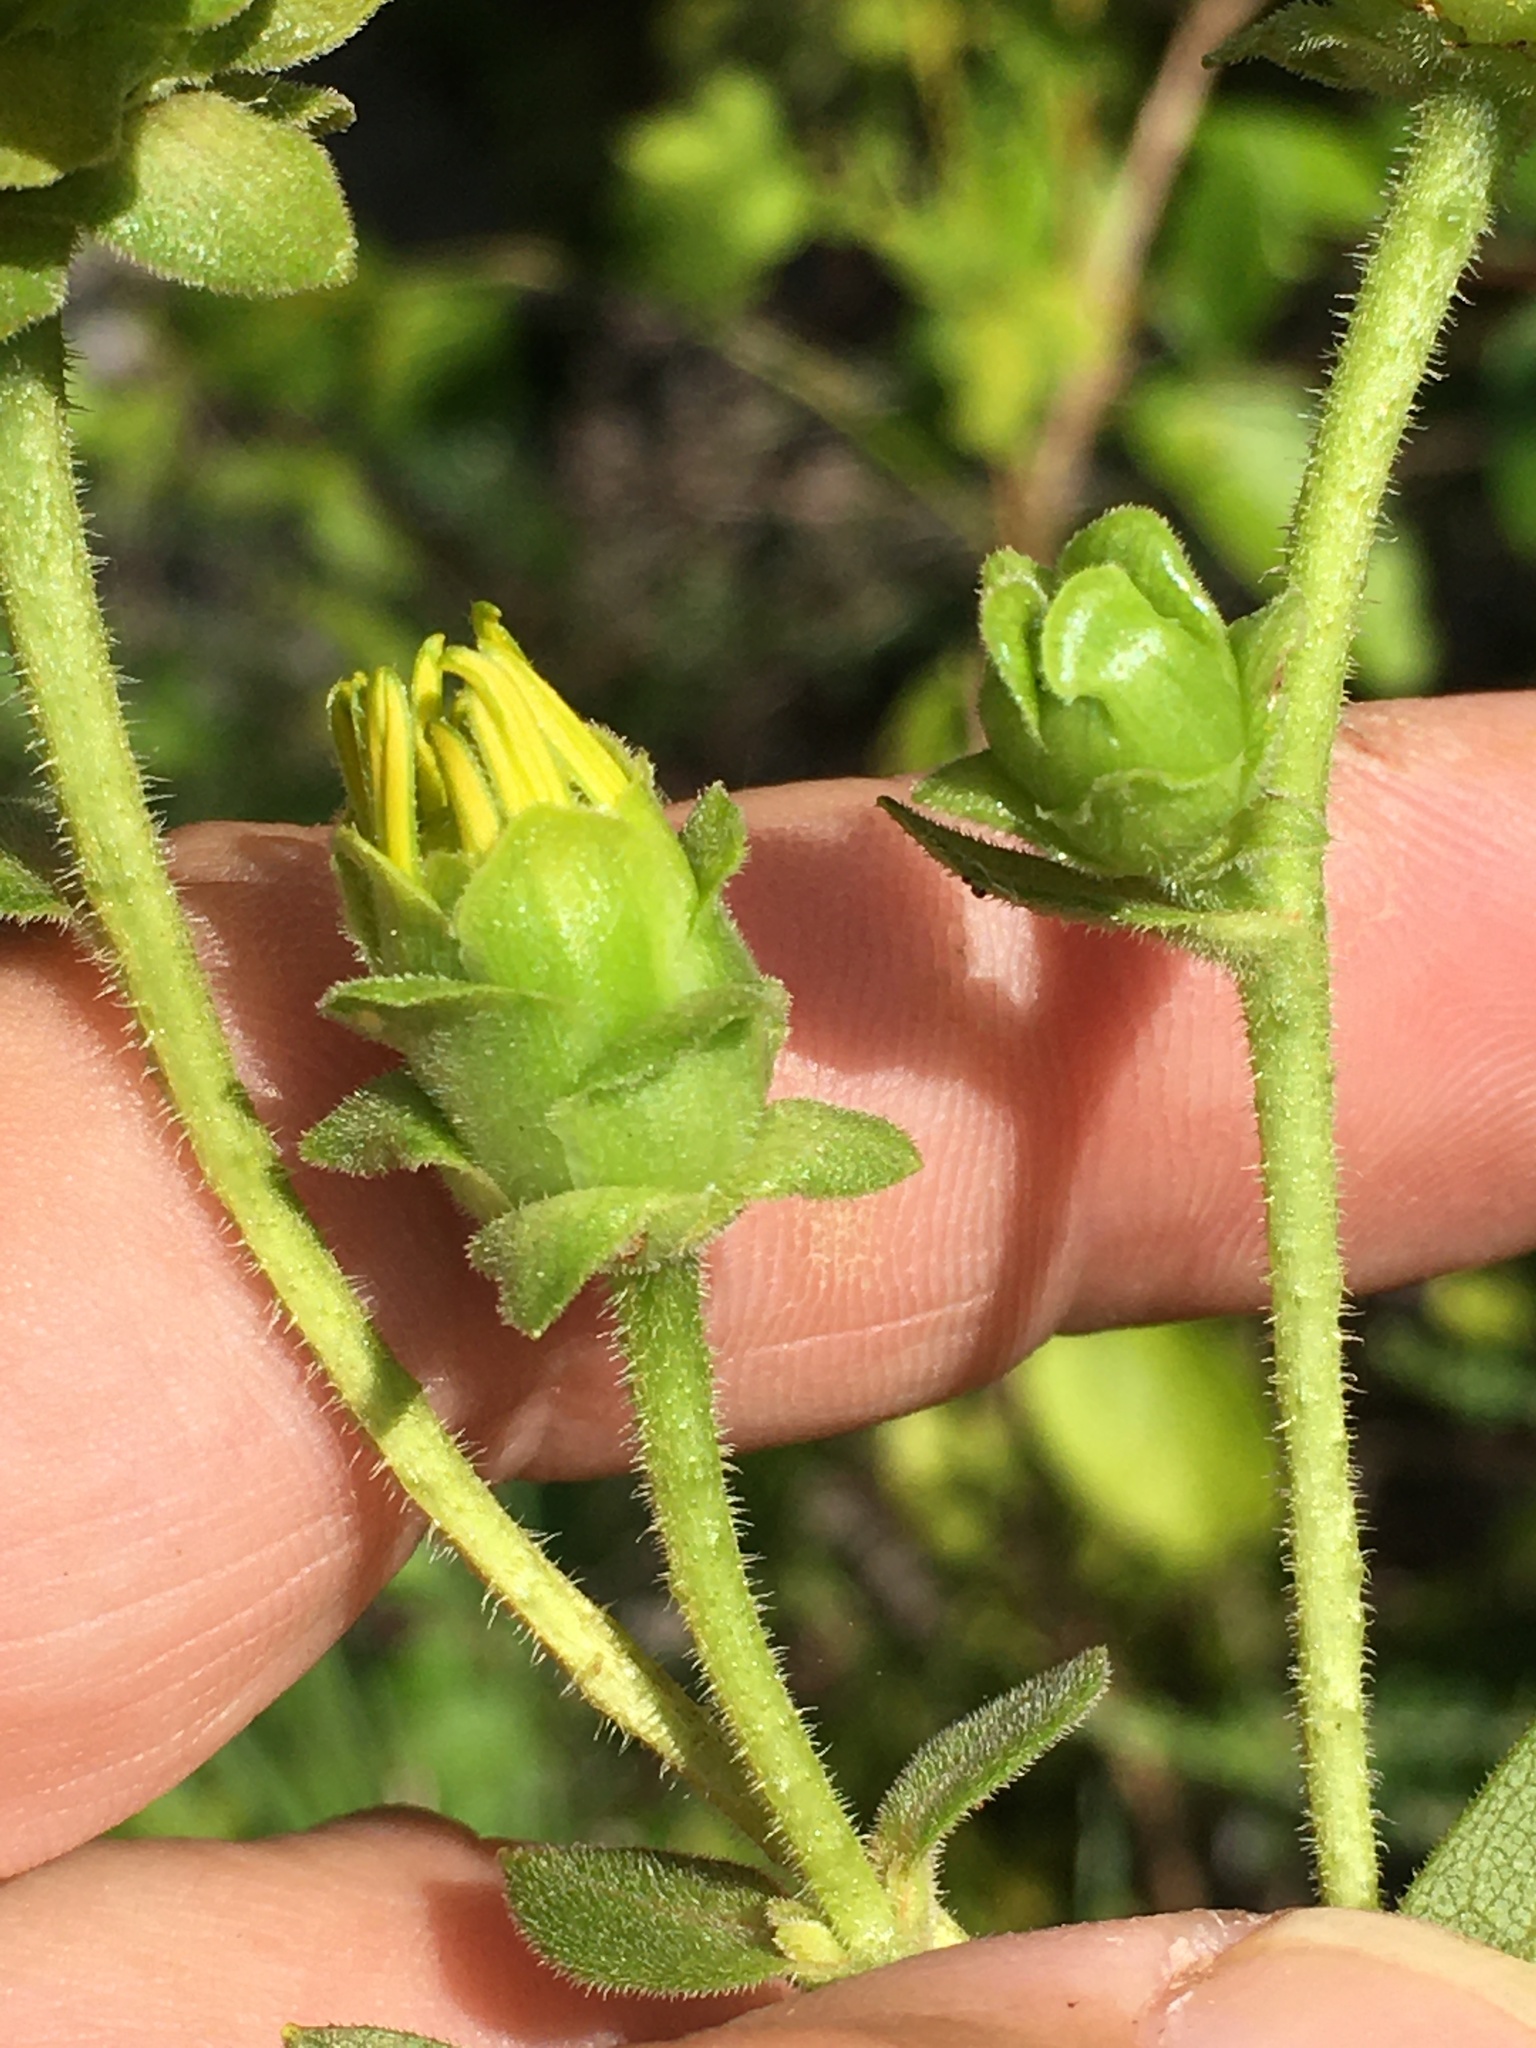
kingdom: Plantae
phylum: Tracheophyta
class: Magnoliopsida
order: Asterales
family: Asteraceae
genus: Silphium
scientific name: Silphium asteriscus
